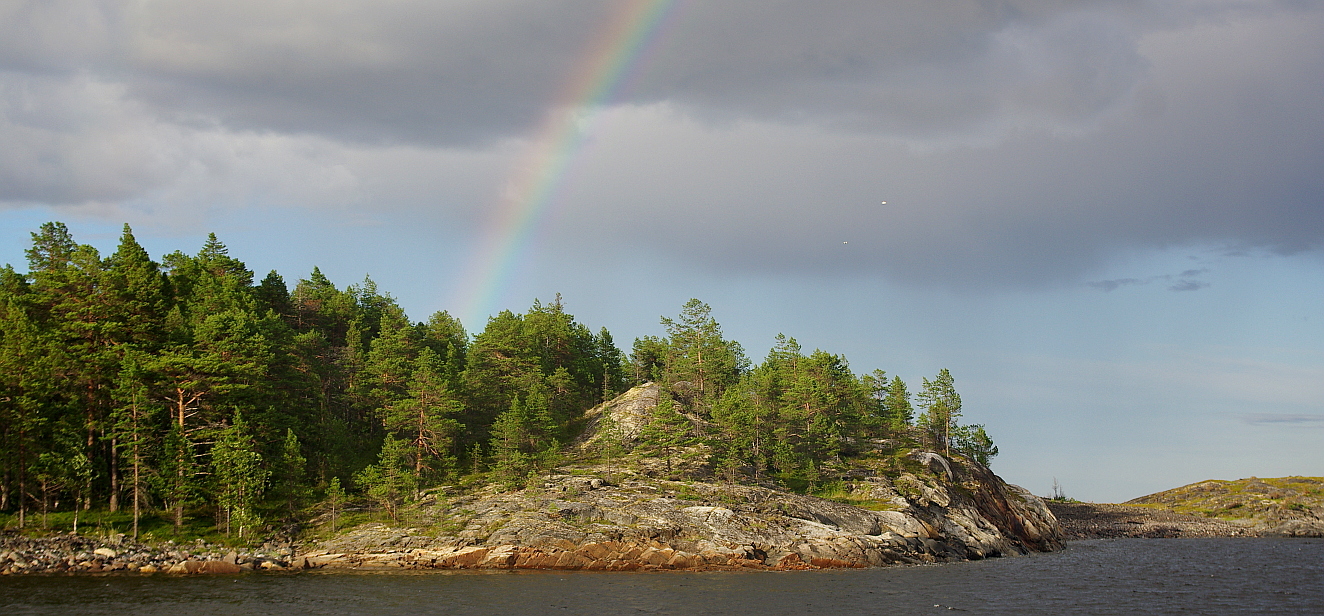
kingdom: Plantae
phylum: Tracheophyta
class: Pinopsida
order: Pinales
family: Pinaceae
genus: Pinus
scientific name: Pinus sylvestris
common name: Scots pine
